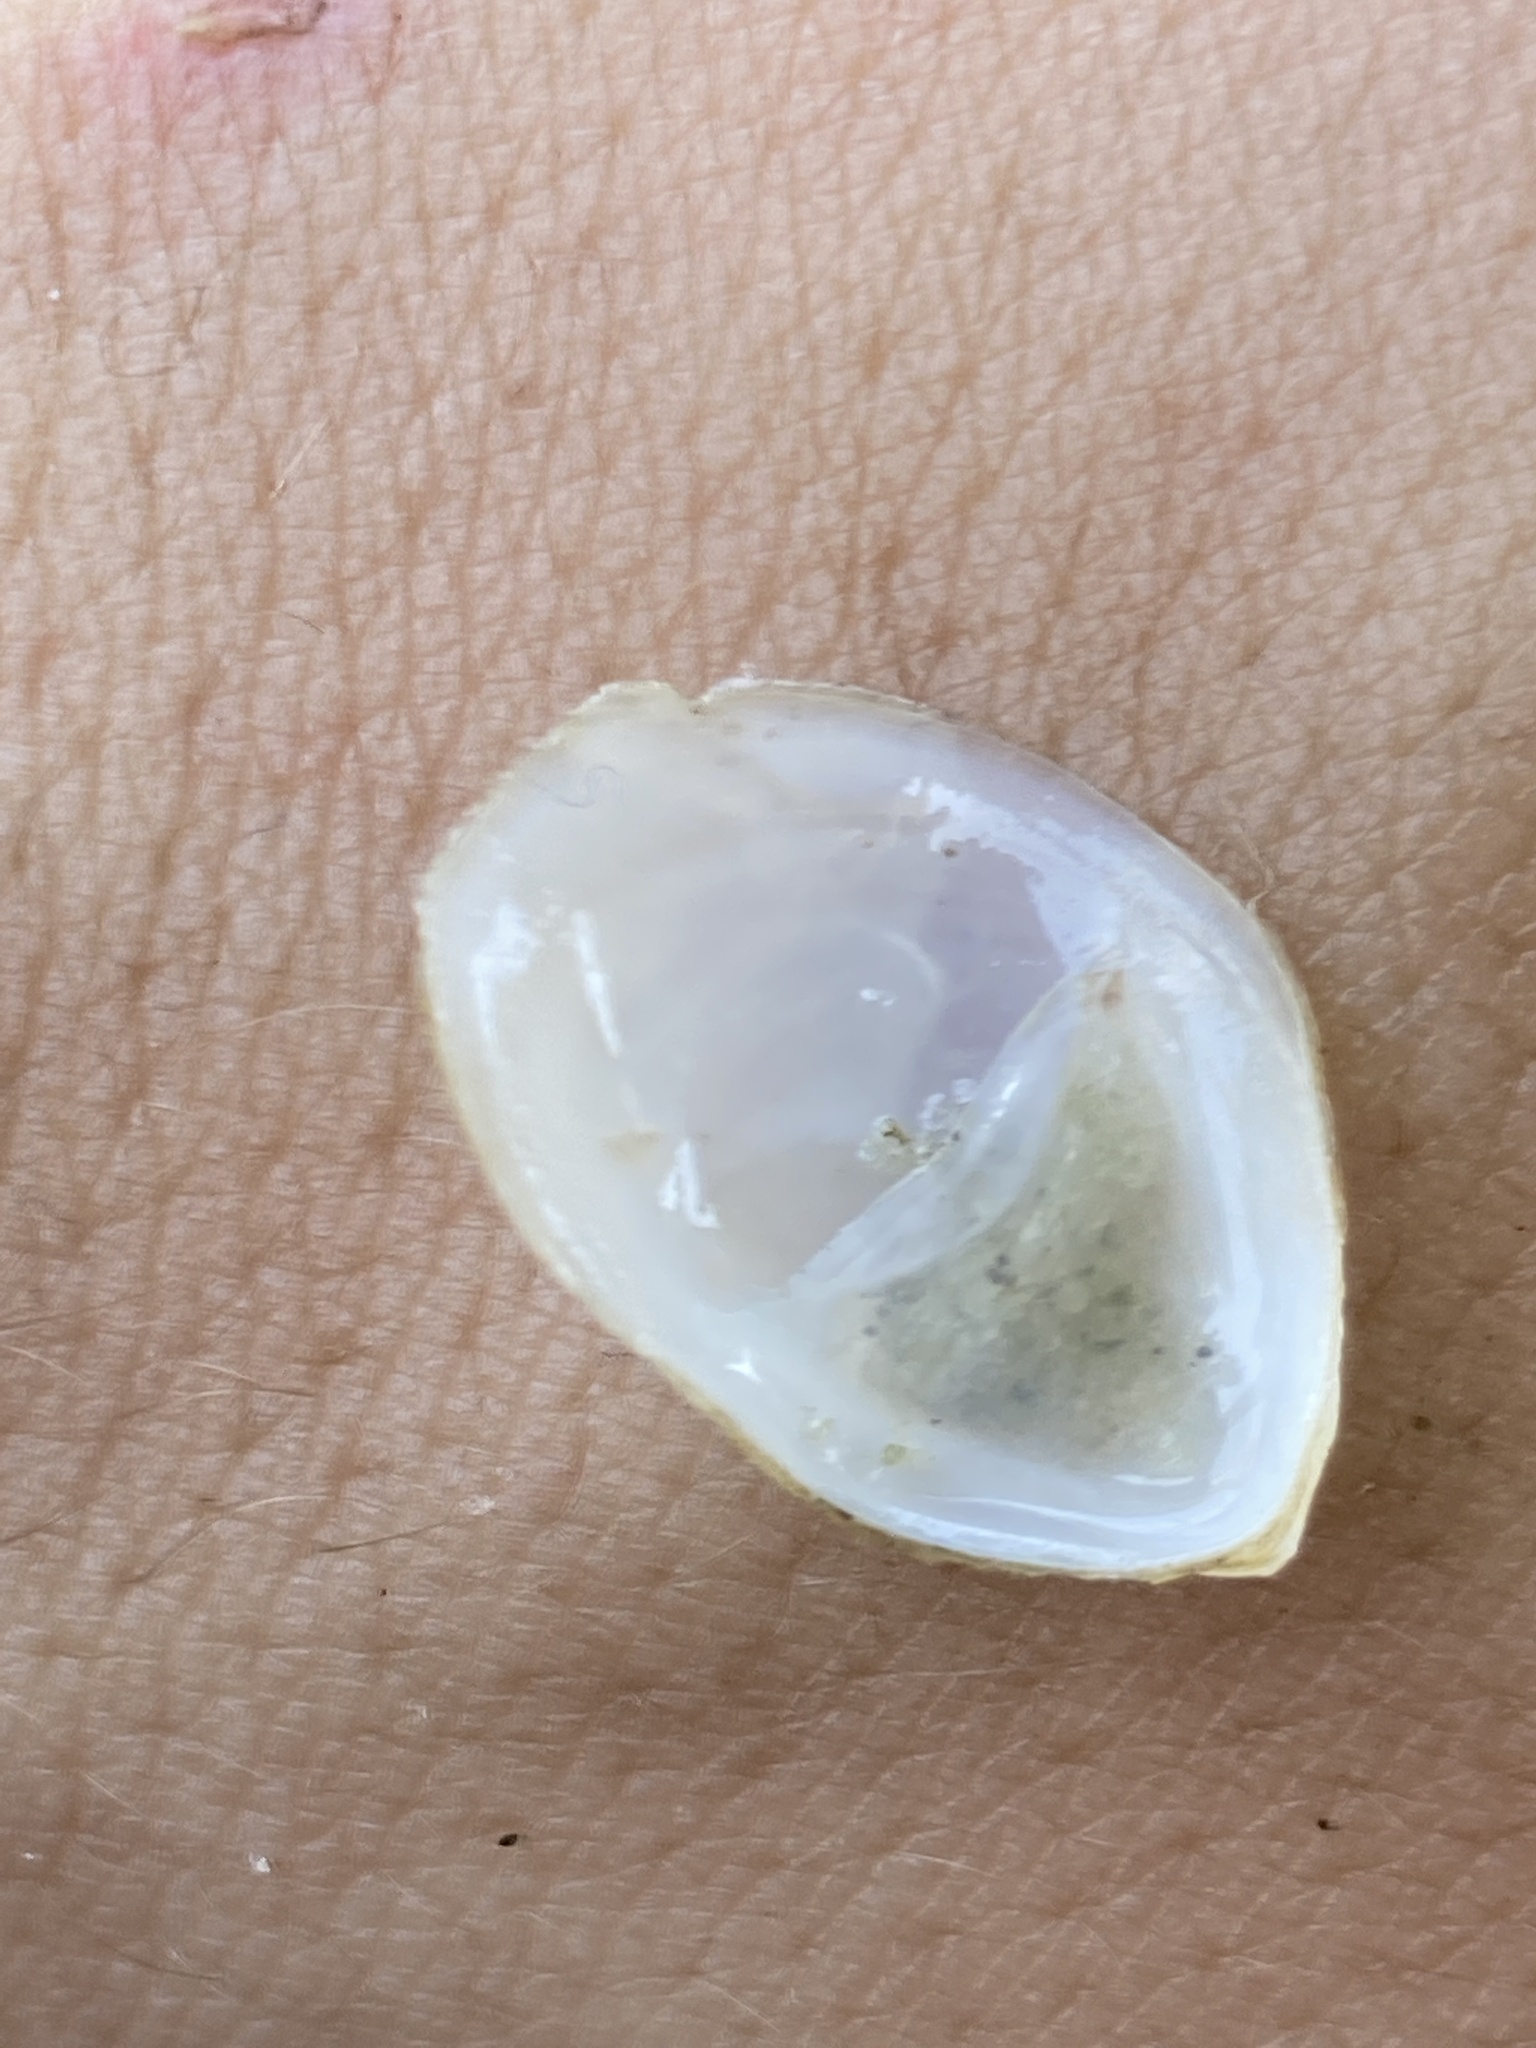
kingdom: Animalia
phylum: Mollusca
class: Gastropoda
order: Littorinimorpha
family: Calyptraeidae
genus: Crepidula
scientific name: Crepidula depressa
